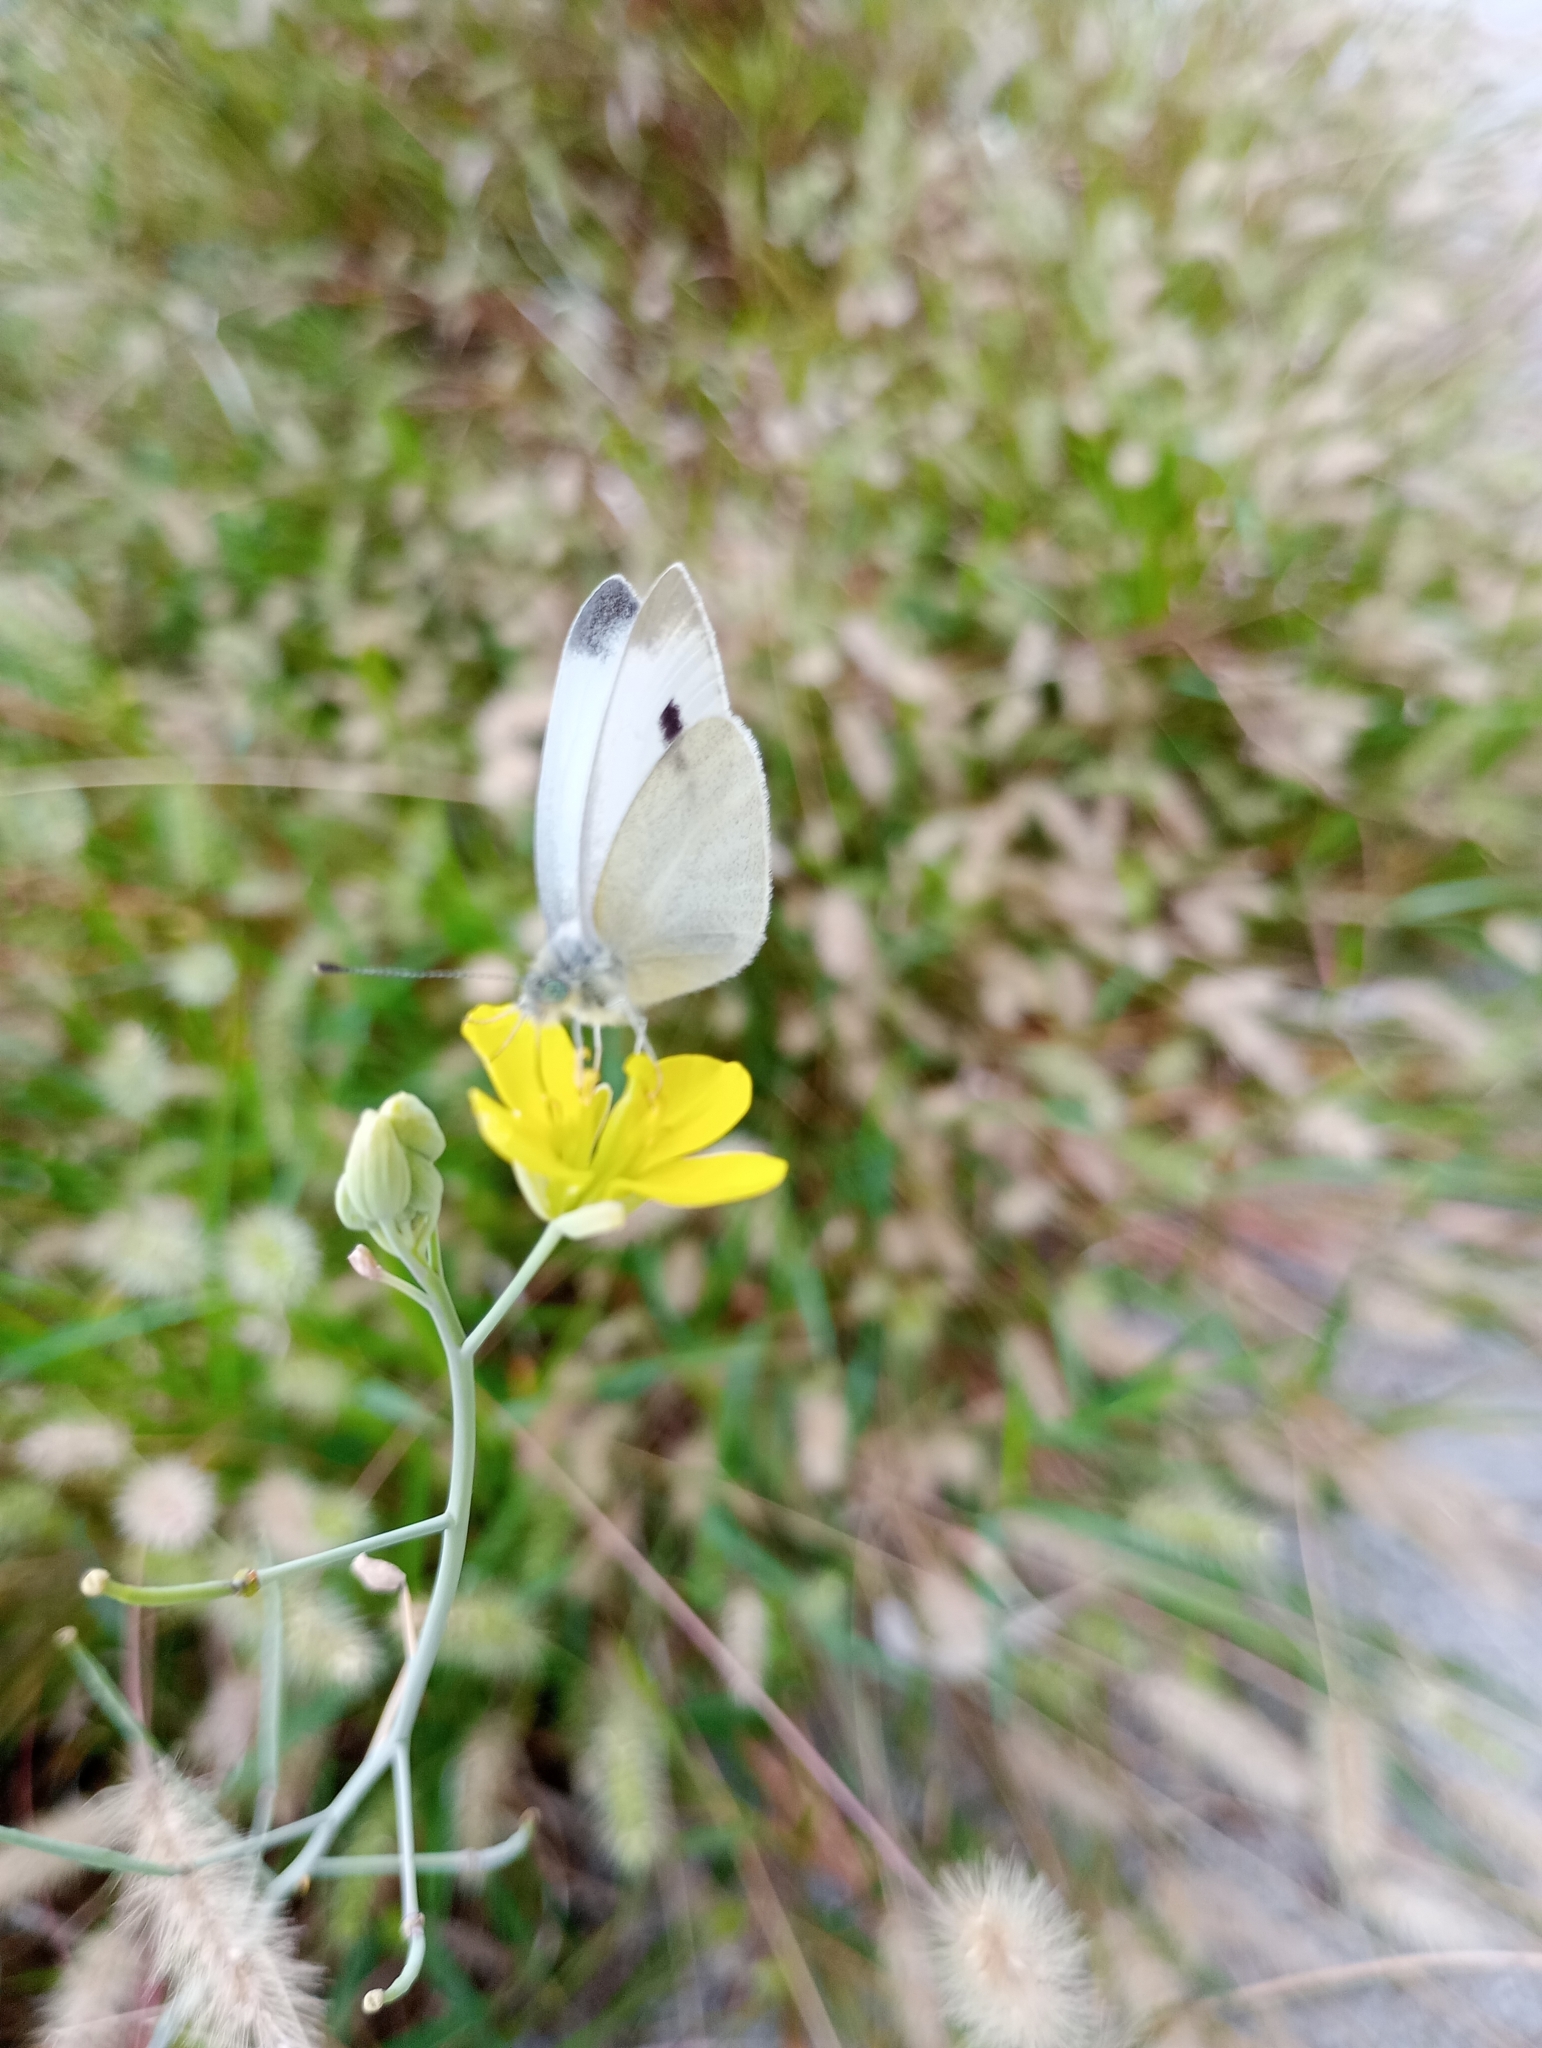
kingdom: Animalia
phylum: Arthropoda
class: Insecta
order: Lepidoptera
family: Pieridae
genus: Pieris
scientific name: Pieris rapae
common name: Small white
